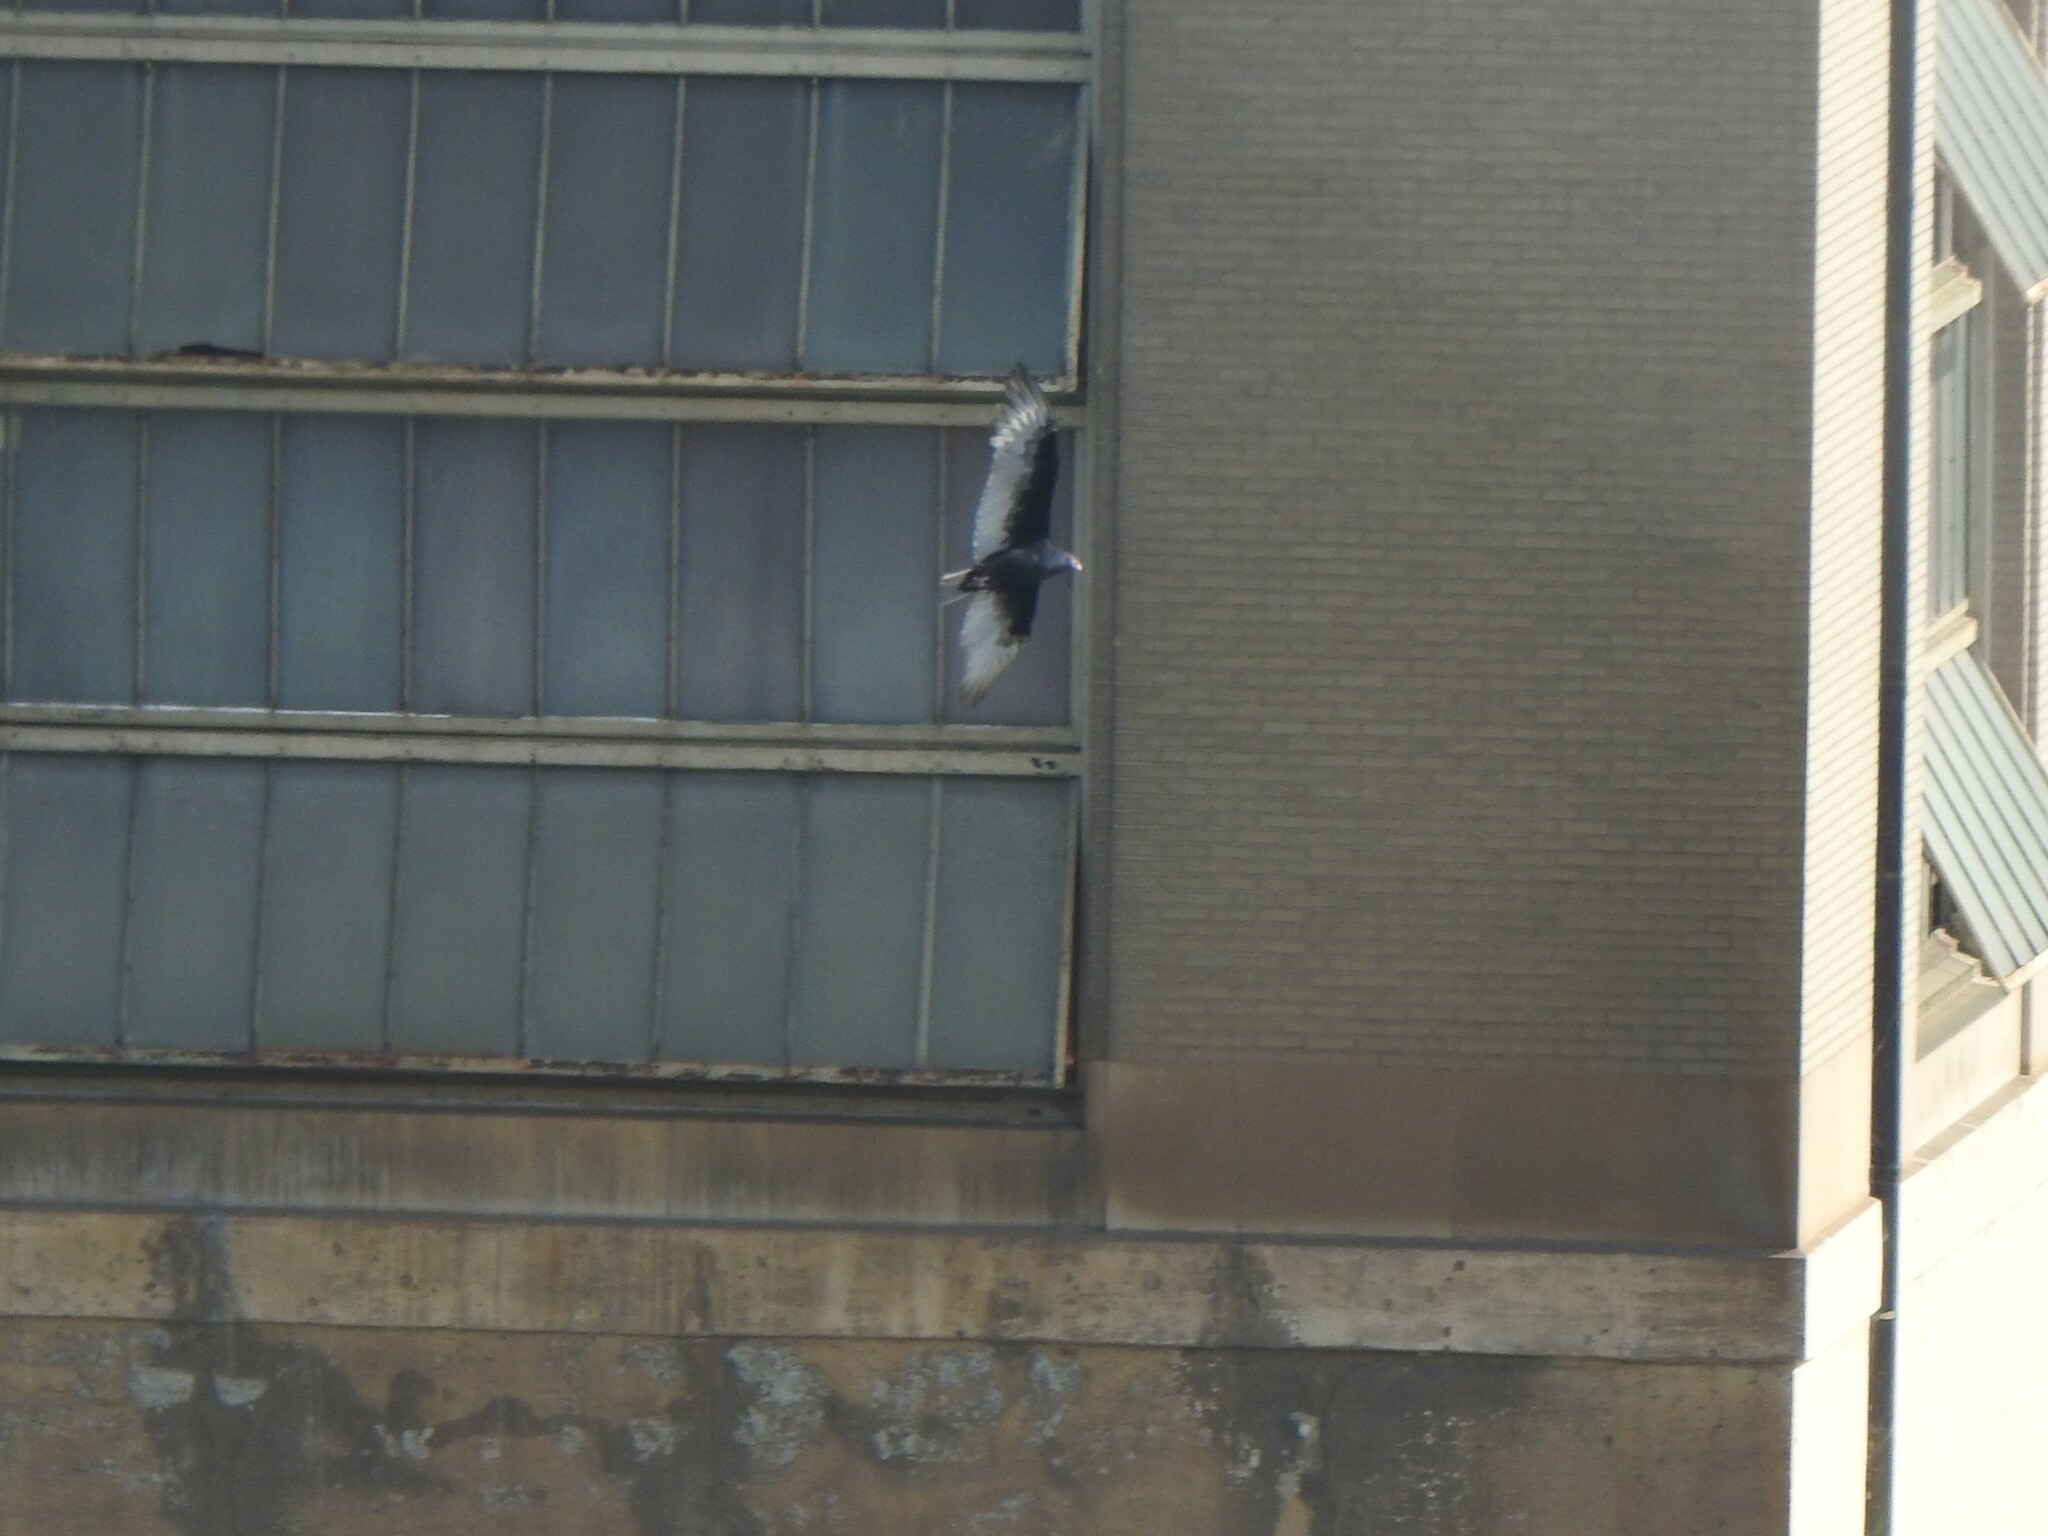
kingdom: Animalia
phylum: Chordata
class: Aves
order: Accipitriformes
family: Cathartidae
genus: Cathartes
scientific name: Cathartes aura
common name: Turkey vulture
